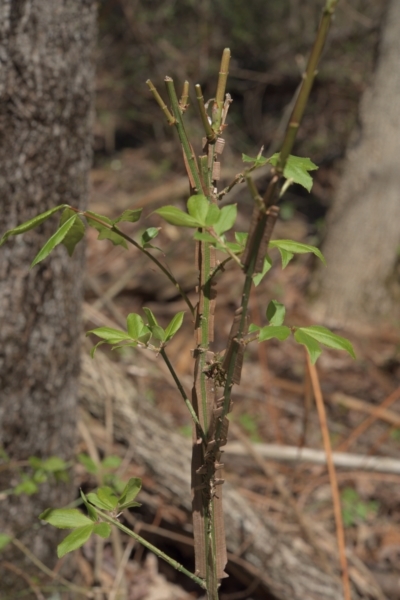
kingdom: Plantae
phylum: Tracheophyta
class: Magnoliopsida
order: Celastrales
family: Celastraceae
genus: Euonymus
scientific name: Euonymus alatus
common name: Winged euonymus
